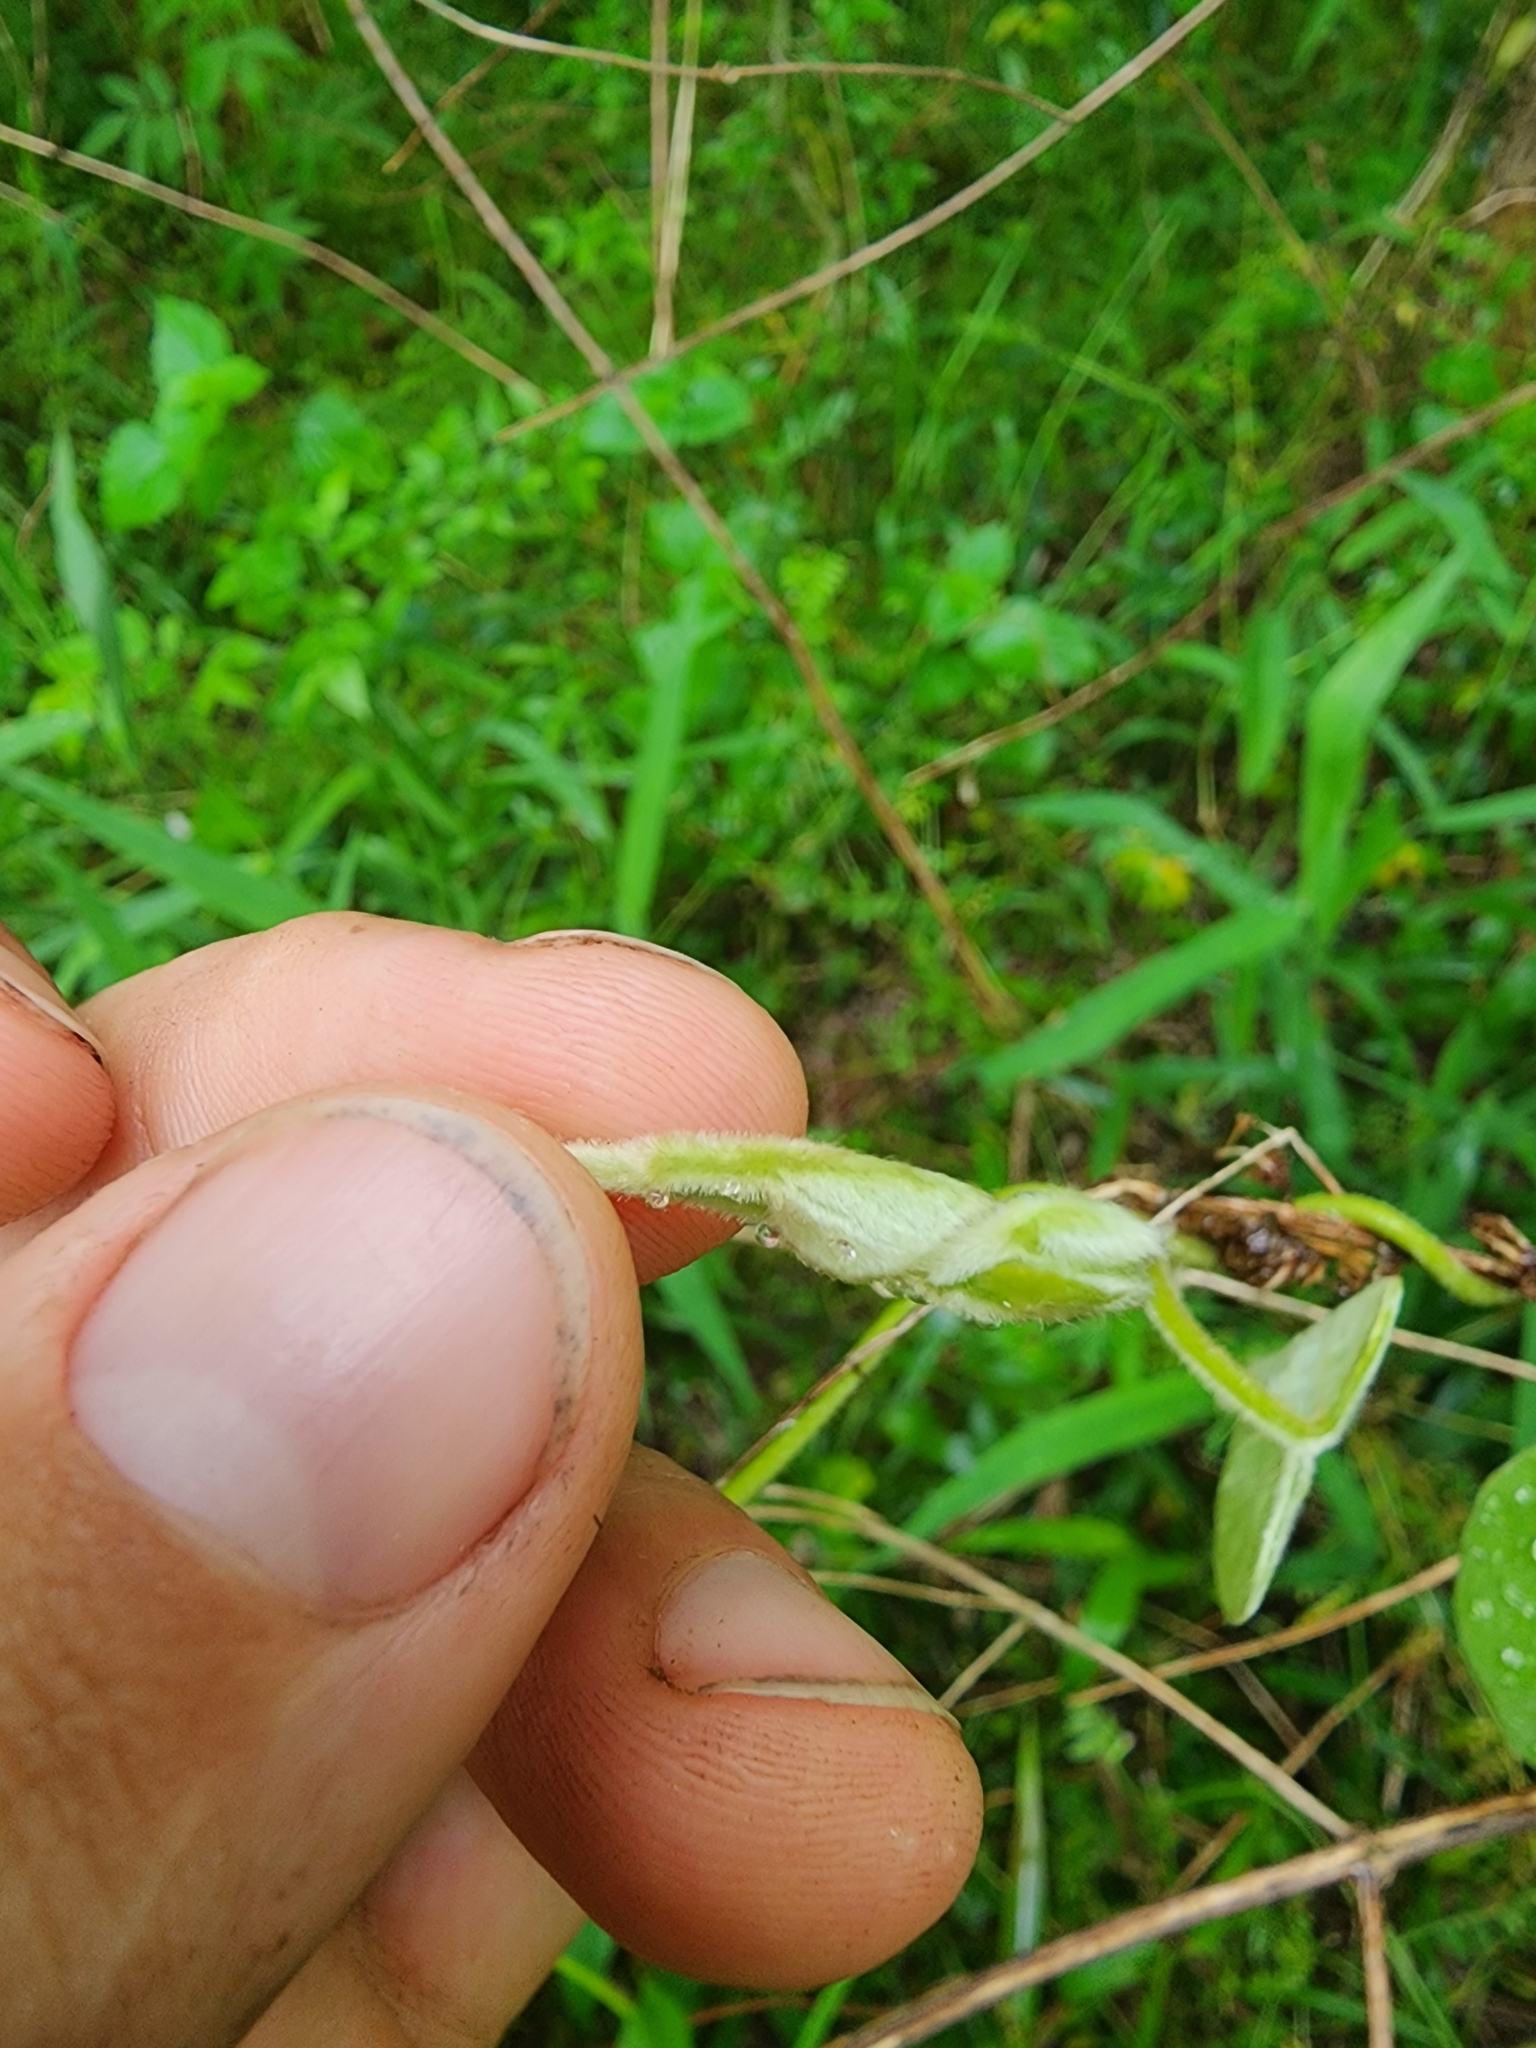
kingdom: Plantae
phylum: Tracheophyta
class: Magnoliopsida
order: Piperales
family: Aristolochiaceae
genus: Isotrema
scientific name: Isotrema tomentosum
